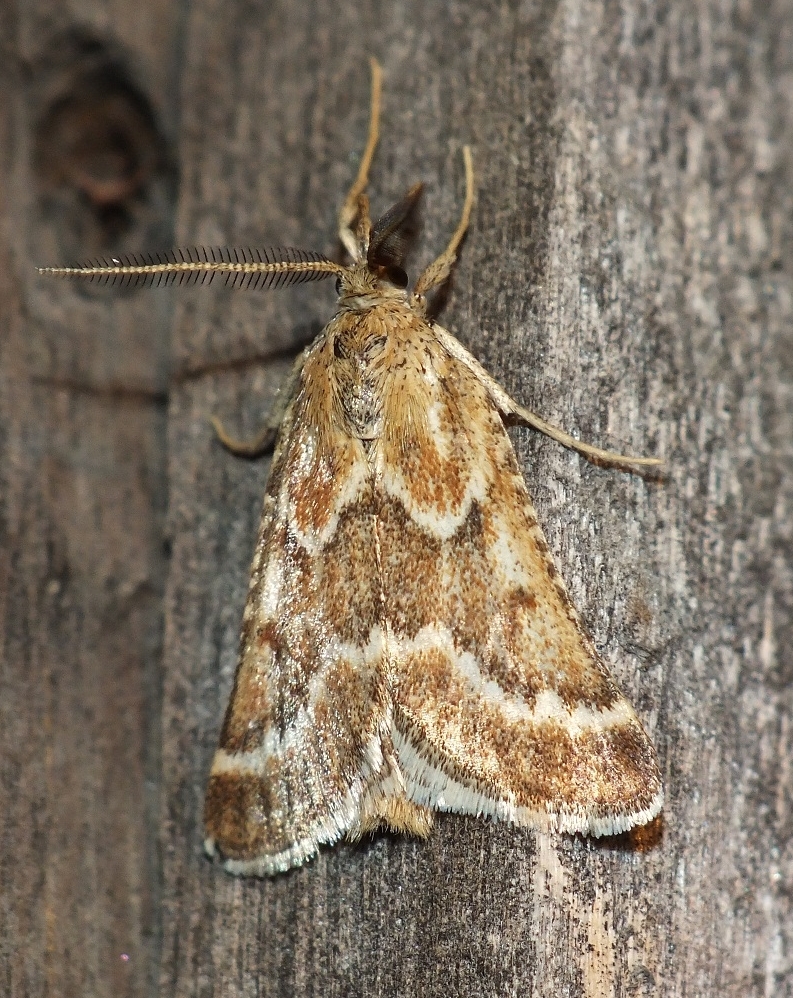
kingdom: Animalia
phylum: Arthropoda
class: Insecta
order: Lepidoptera
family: Pyralidae
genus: Synaphe
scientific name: Synaphe bombycalis
